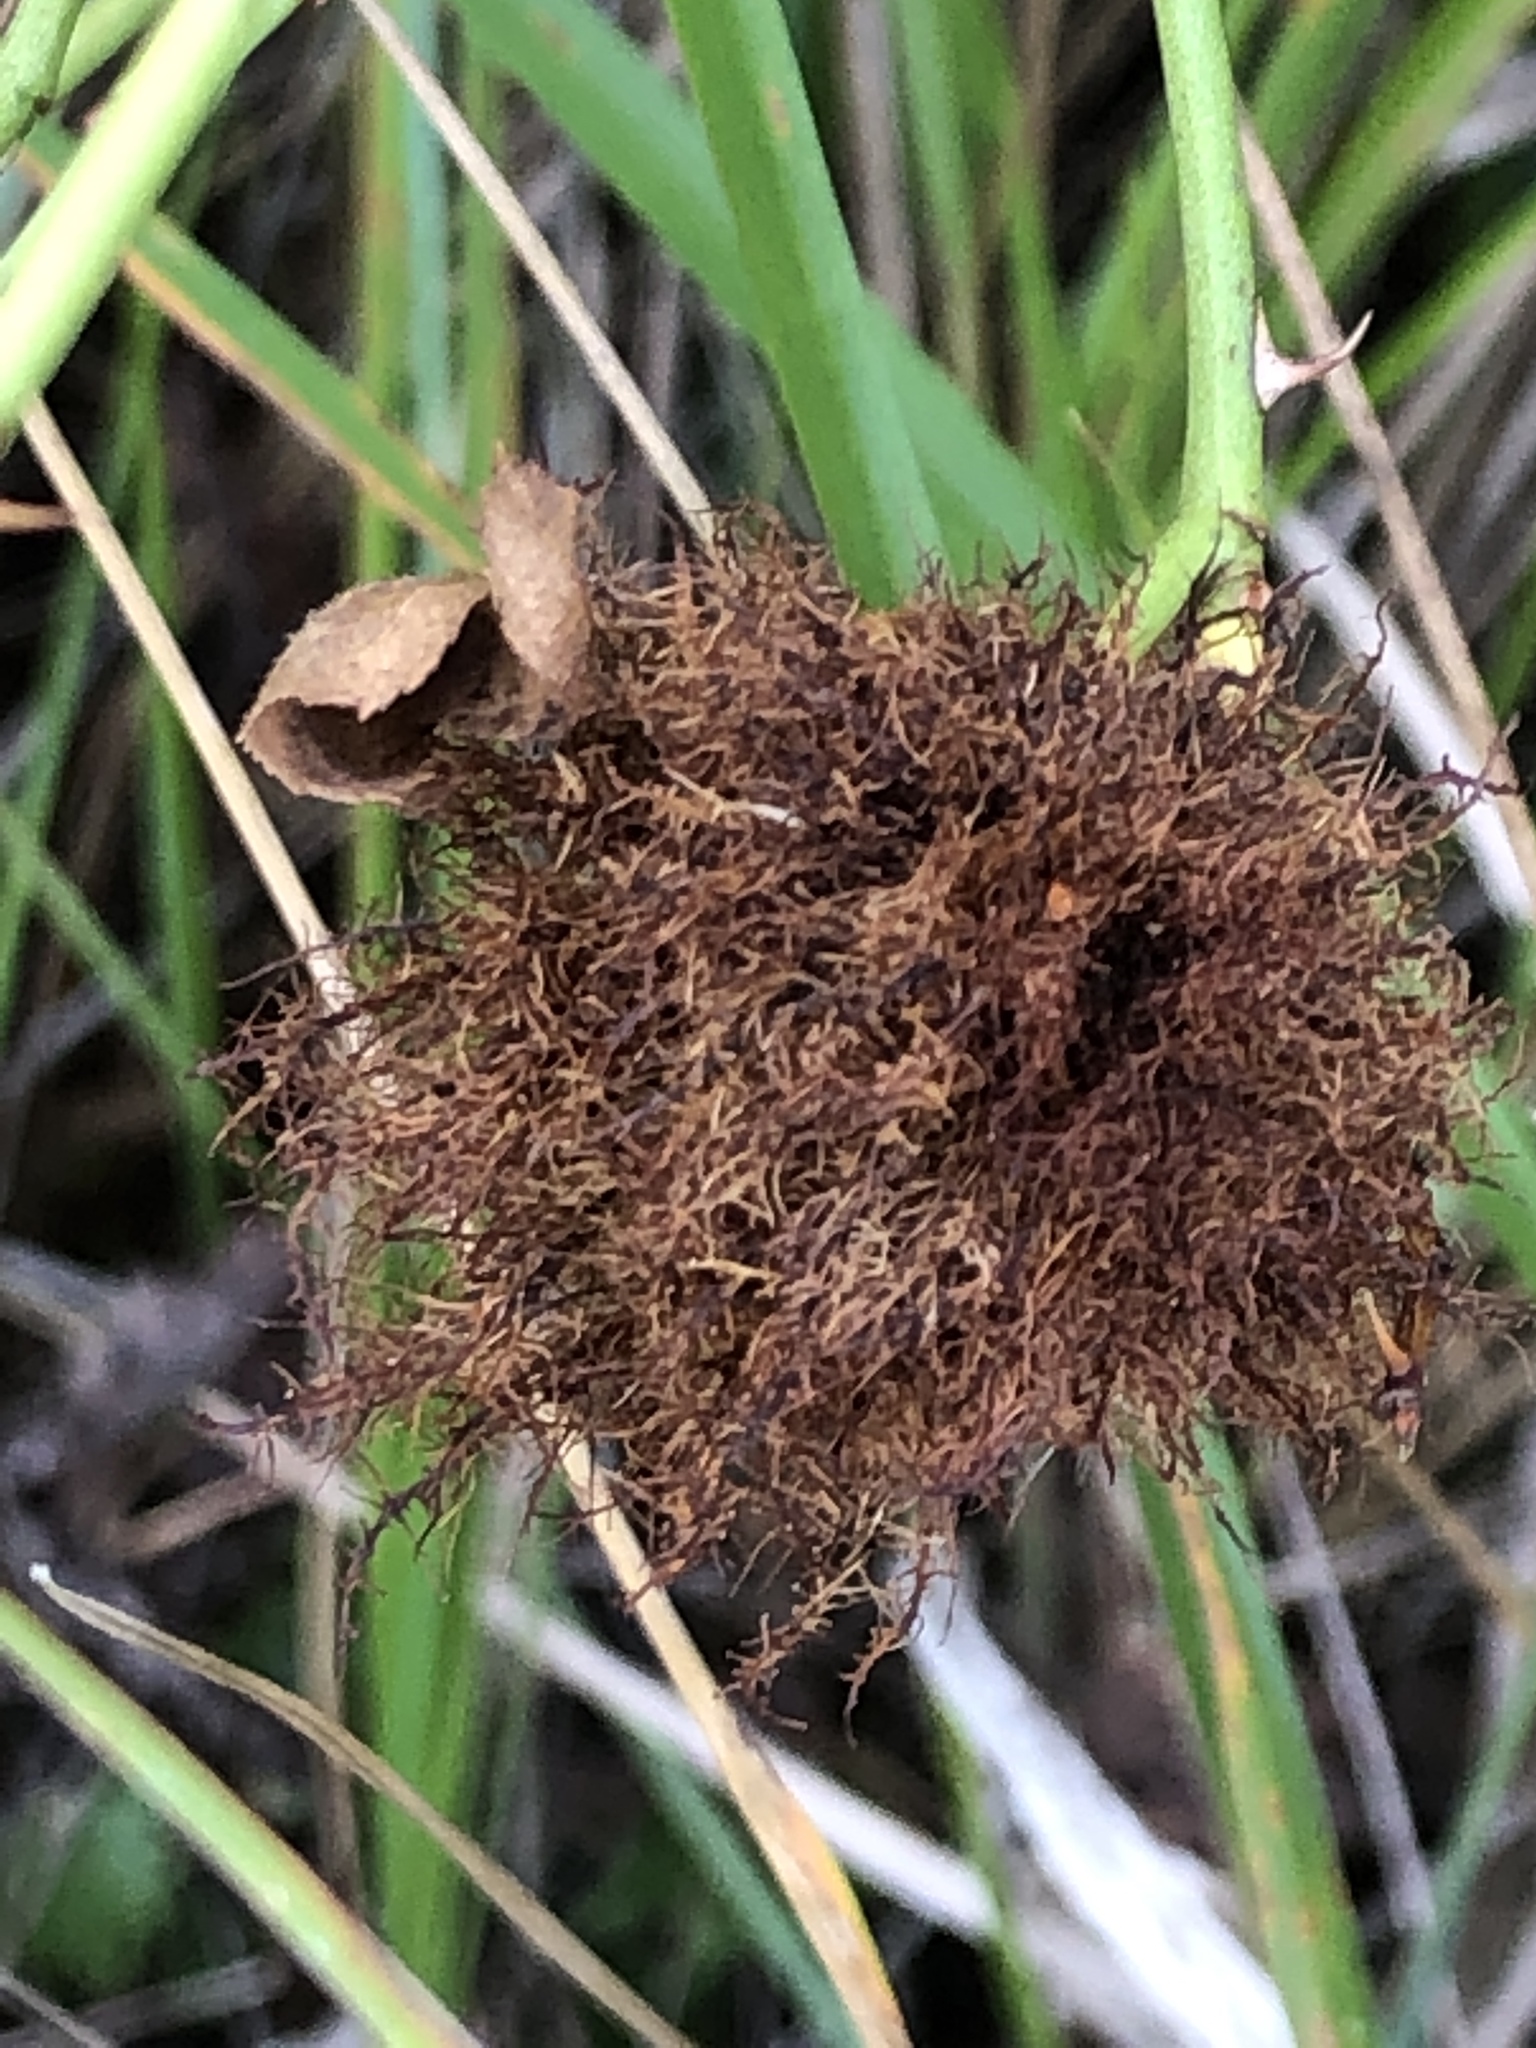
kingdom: Animalia
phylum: Arthropoda
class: Insecta
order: Hymenoptera
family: Cynipidae
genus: Diplolepis
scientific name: Diplolepis rosae
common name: Bedeguar gall
